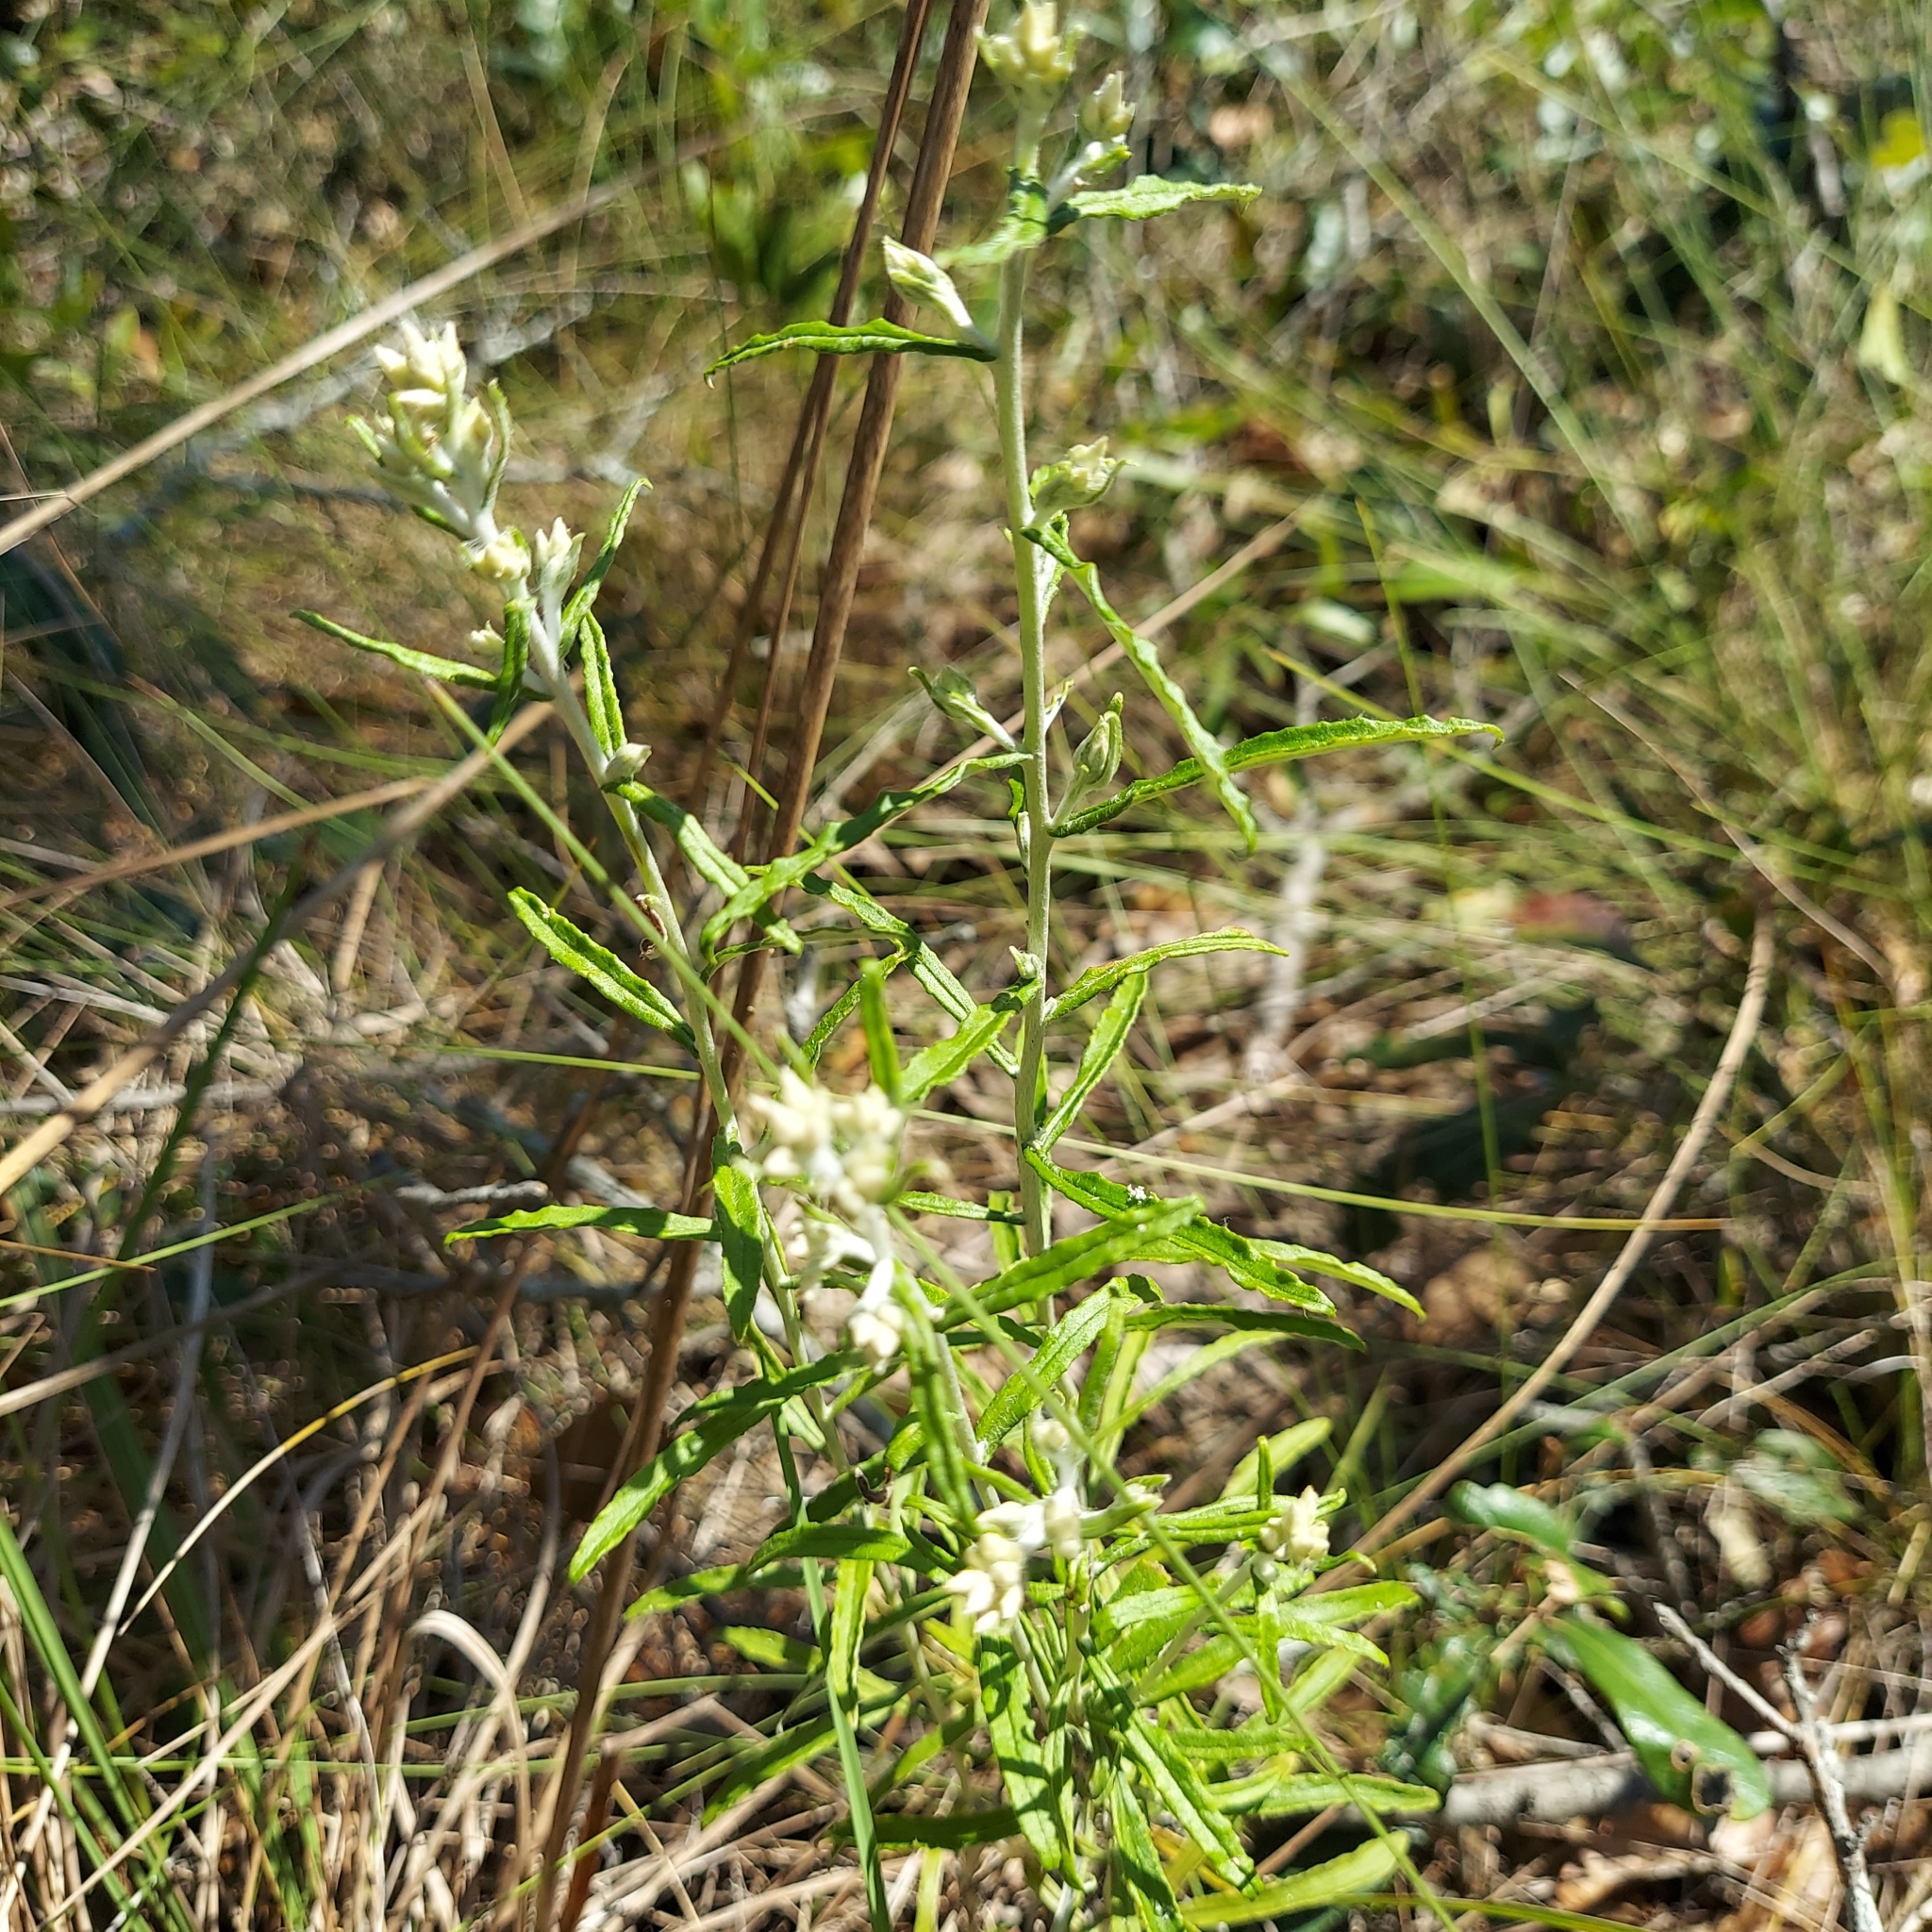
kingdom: Plantae
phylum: Tracheophyta
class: Magnoliopsida
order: Asterales
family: Asteraceae
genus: Pseudognaphalium
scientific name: Pseudognaphalium obtusifolium
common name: Eastern rabbit-tobacco
